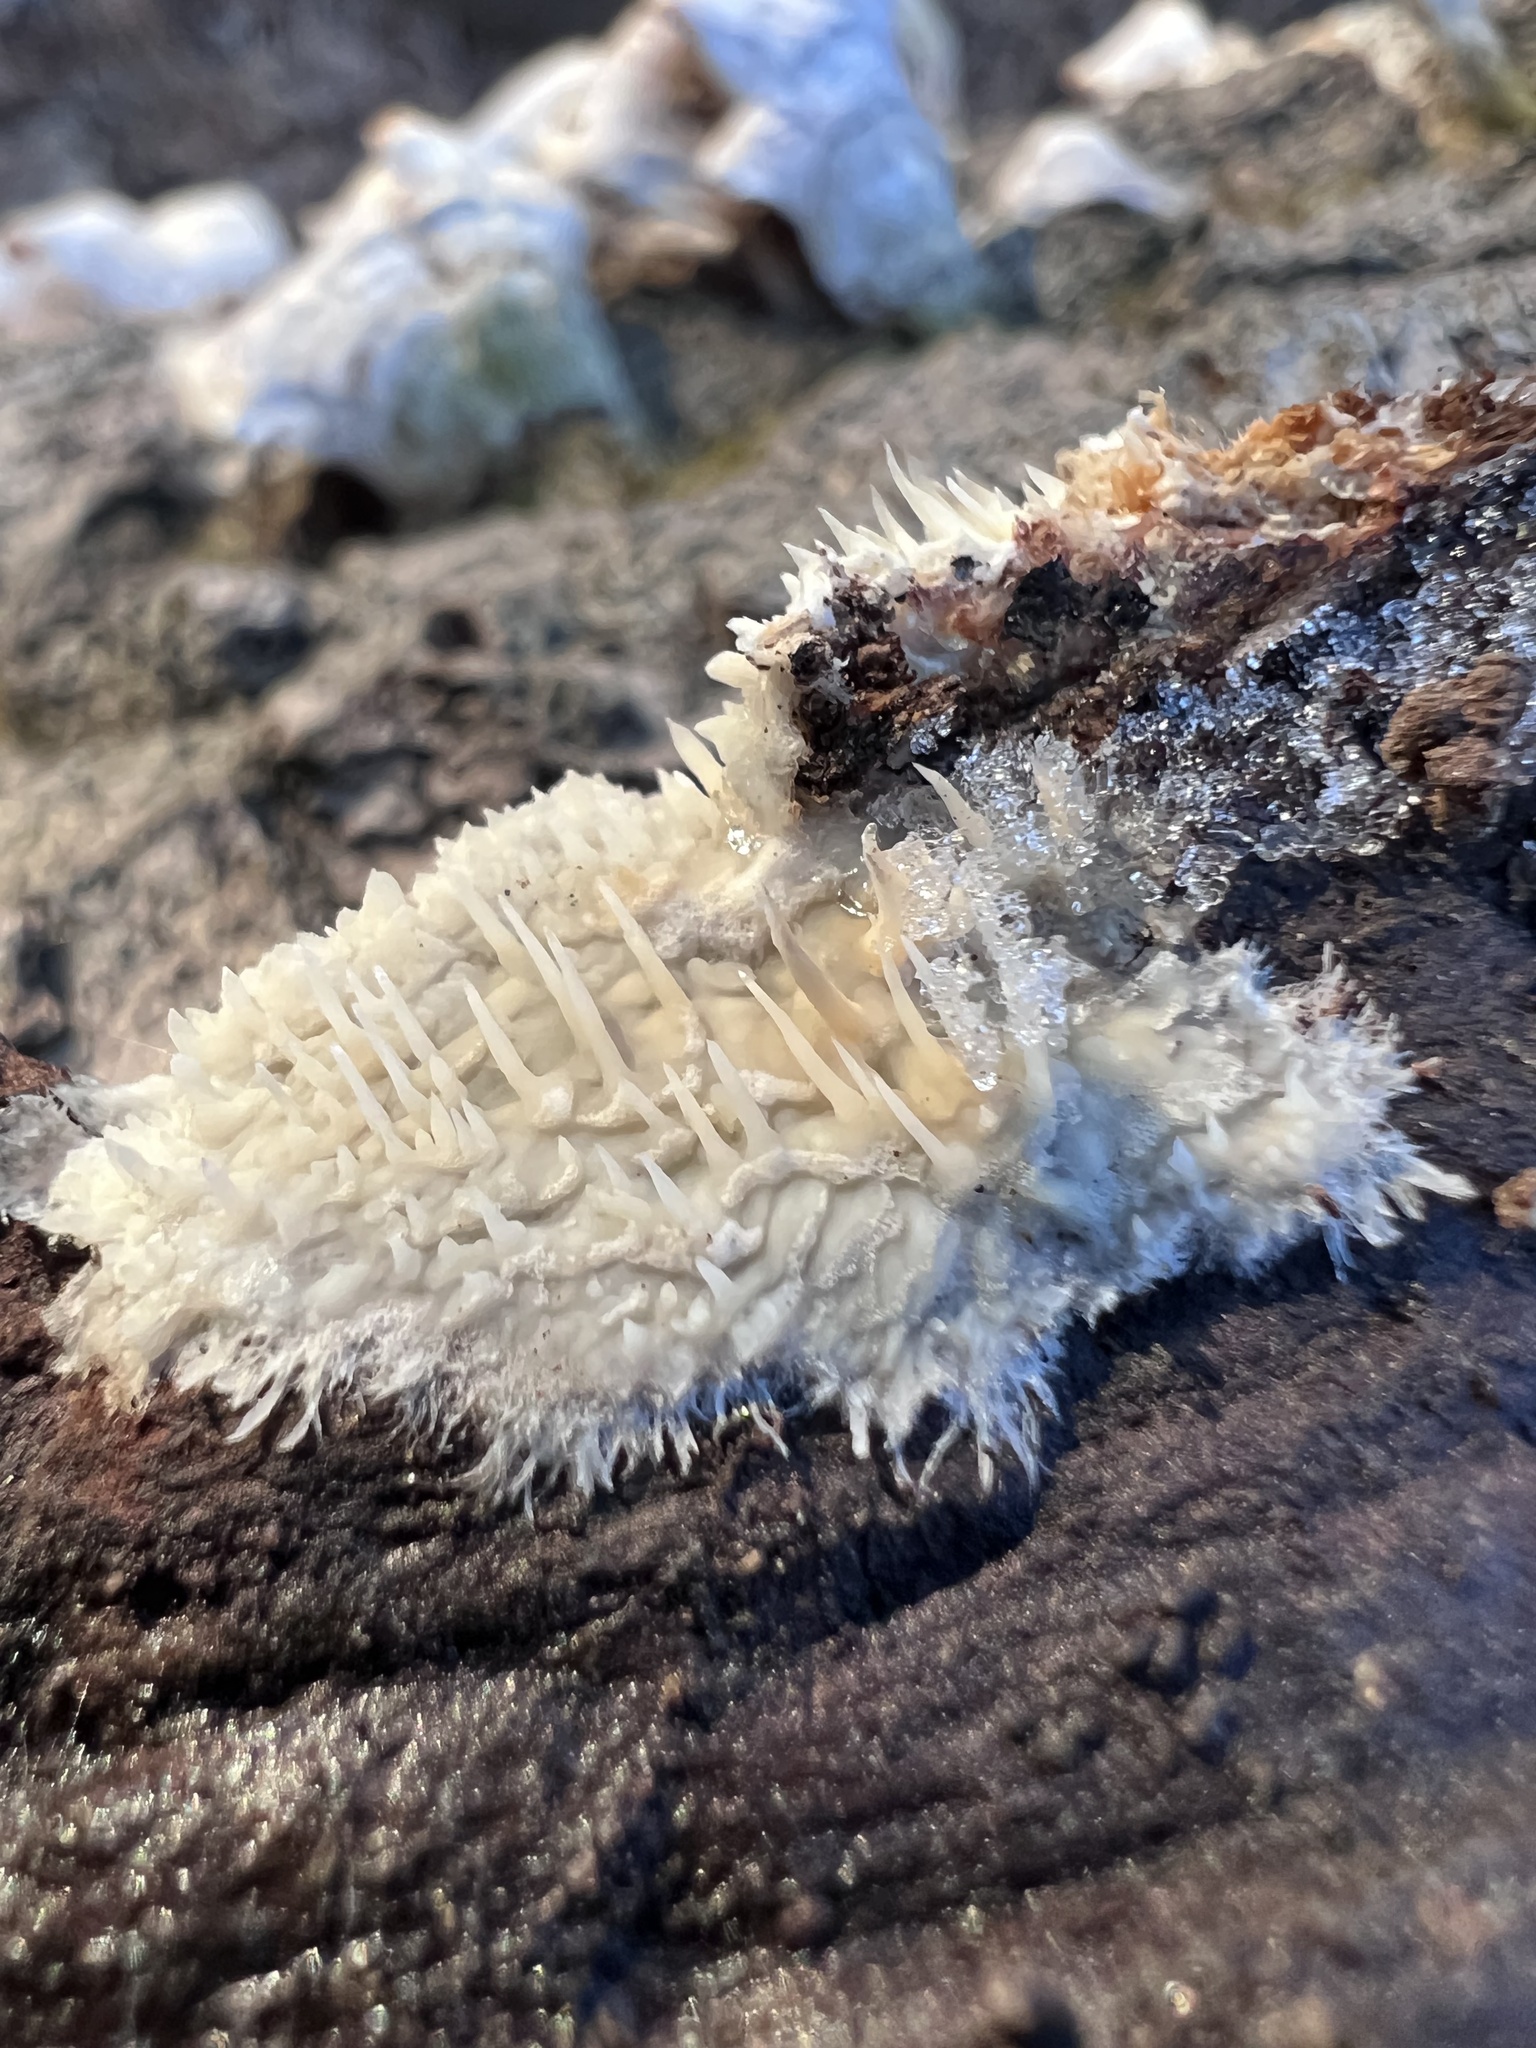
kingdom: Fungi
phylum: Basidiomycota
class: Agaricomycetes
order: Agaricales
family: Radulomycetaceae
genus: Radulomyces
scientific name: Radulomyces copelandii
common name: Asian beauty
